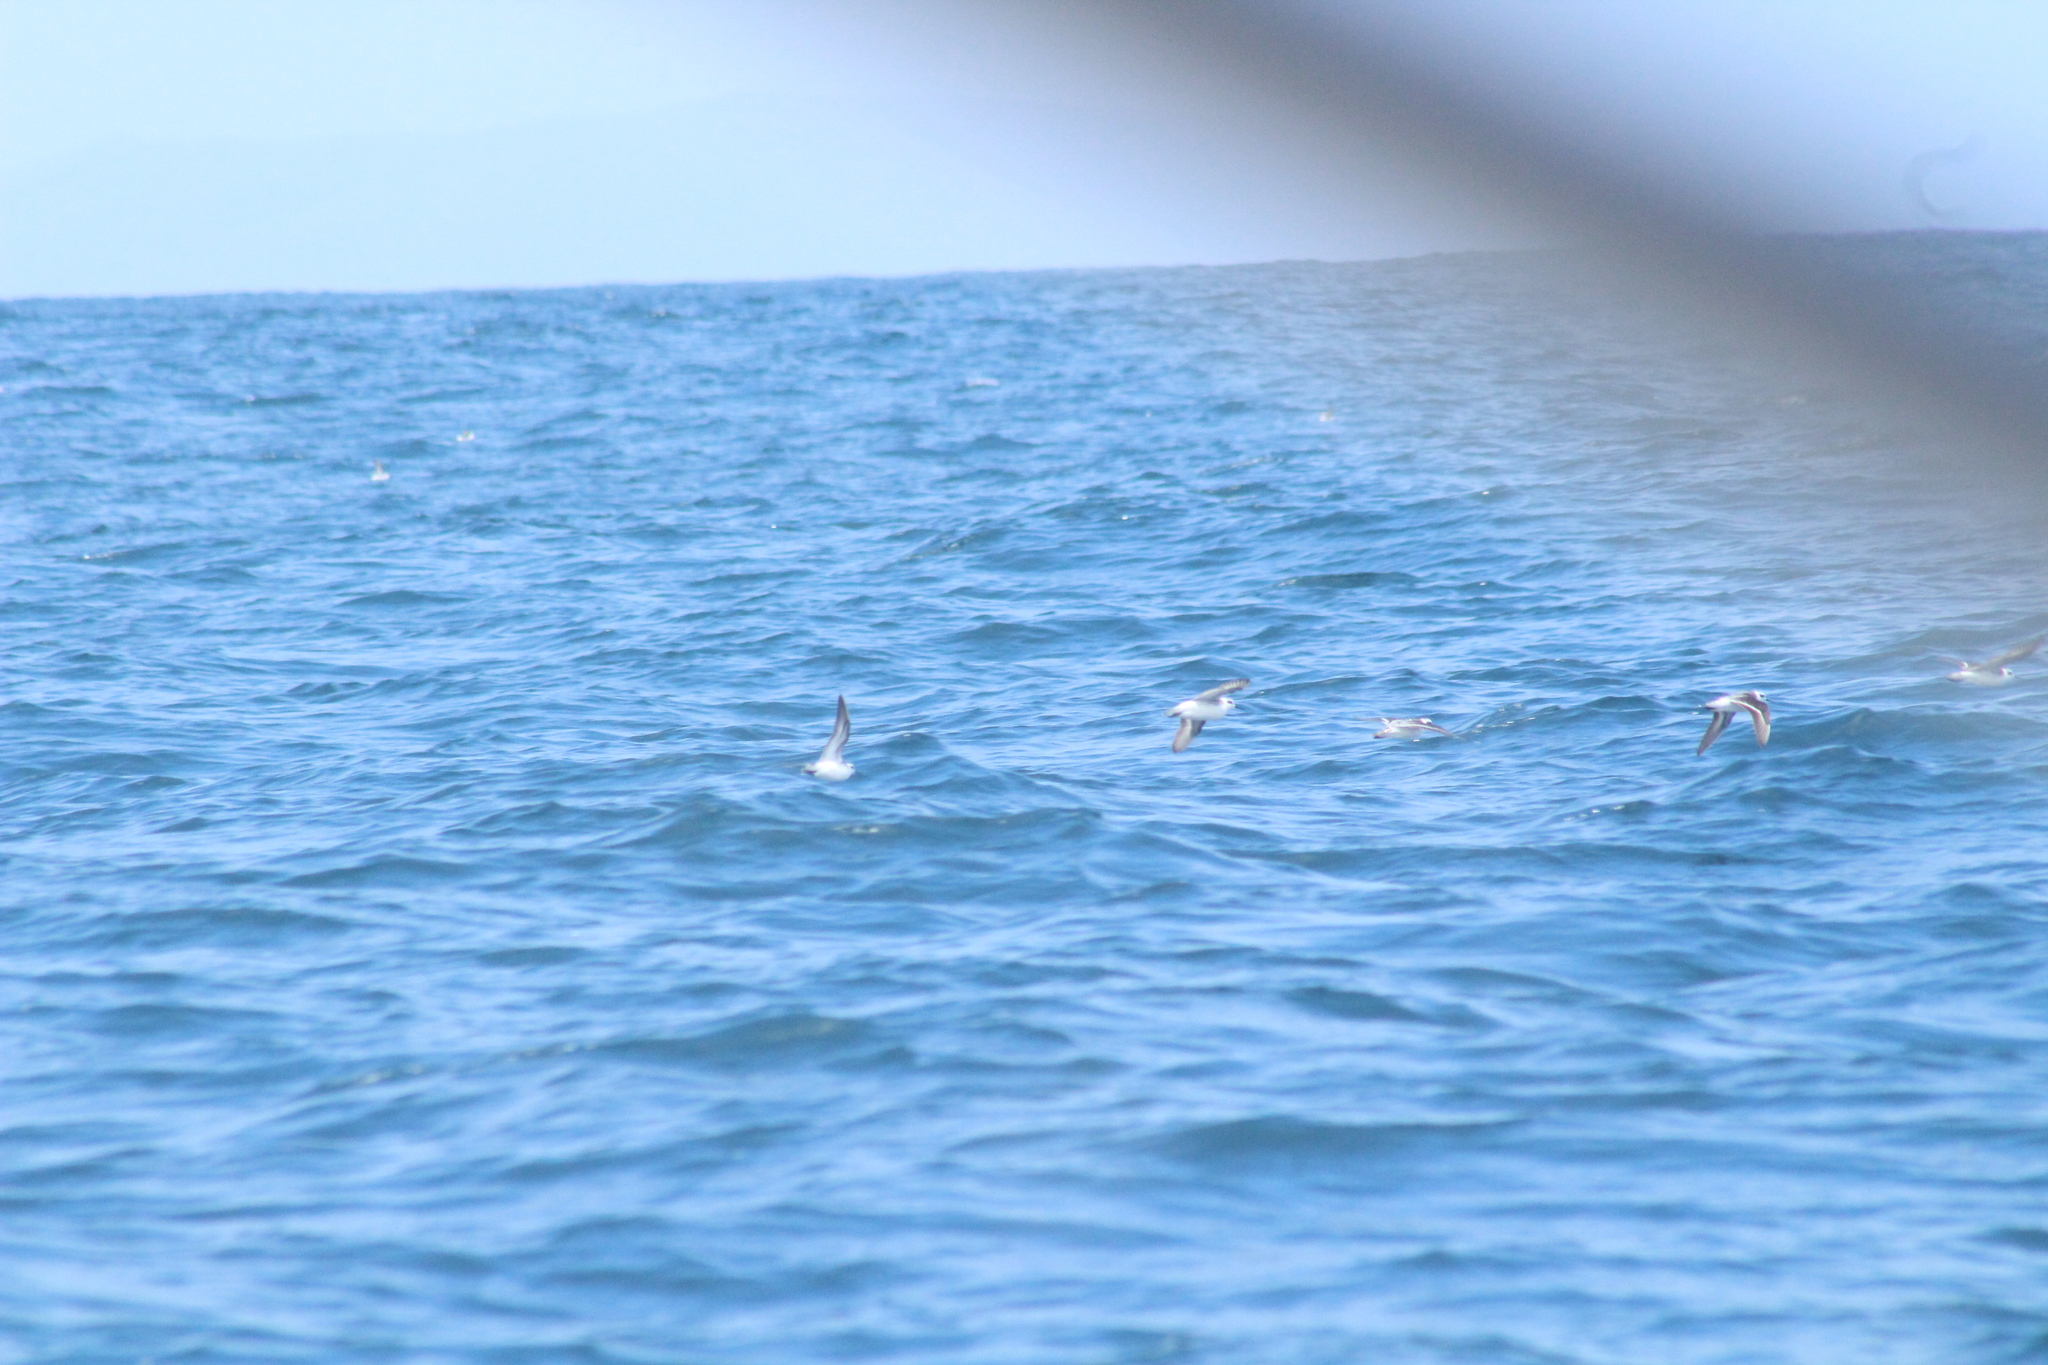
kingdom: Animalia
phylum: Chordata
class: Aves
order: Charadriiformes
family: Scolopacidae
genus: Phalaropus
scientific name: Phalaropus lobatus
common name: Red-necked phalarope
